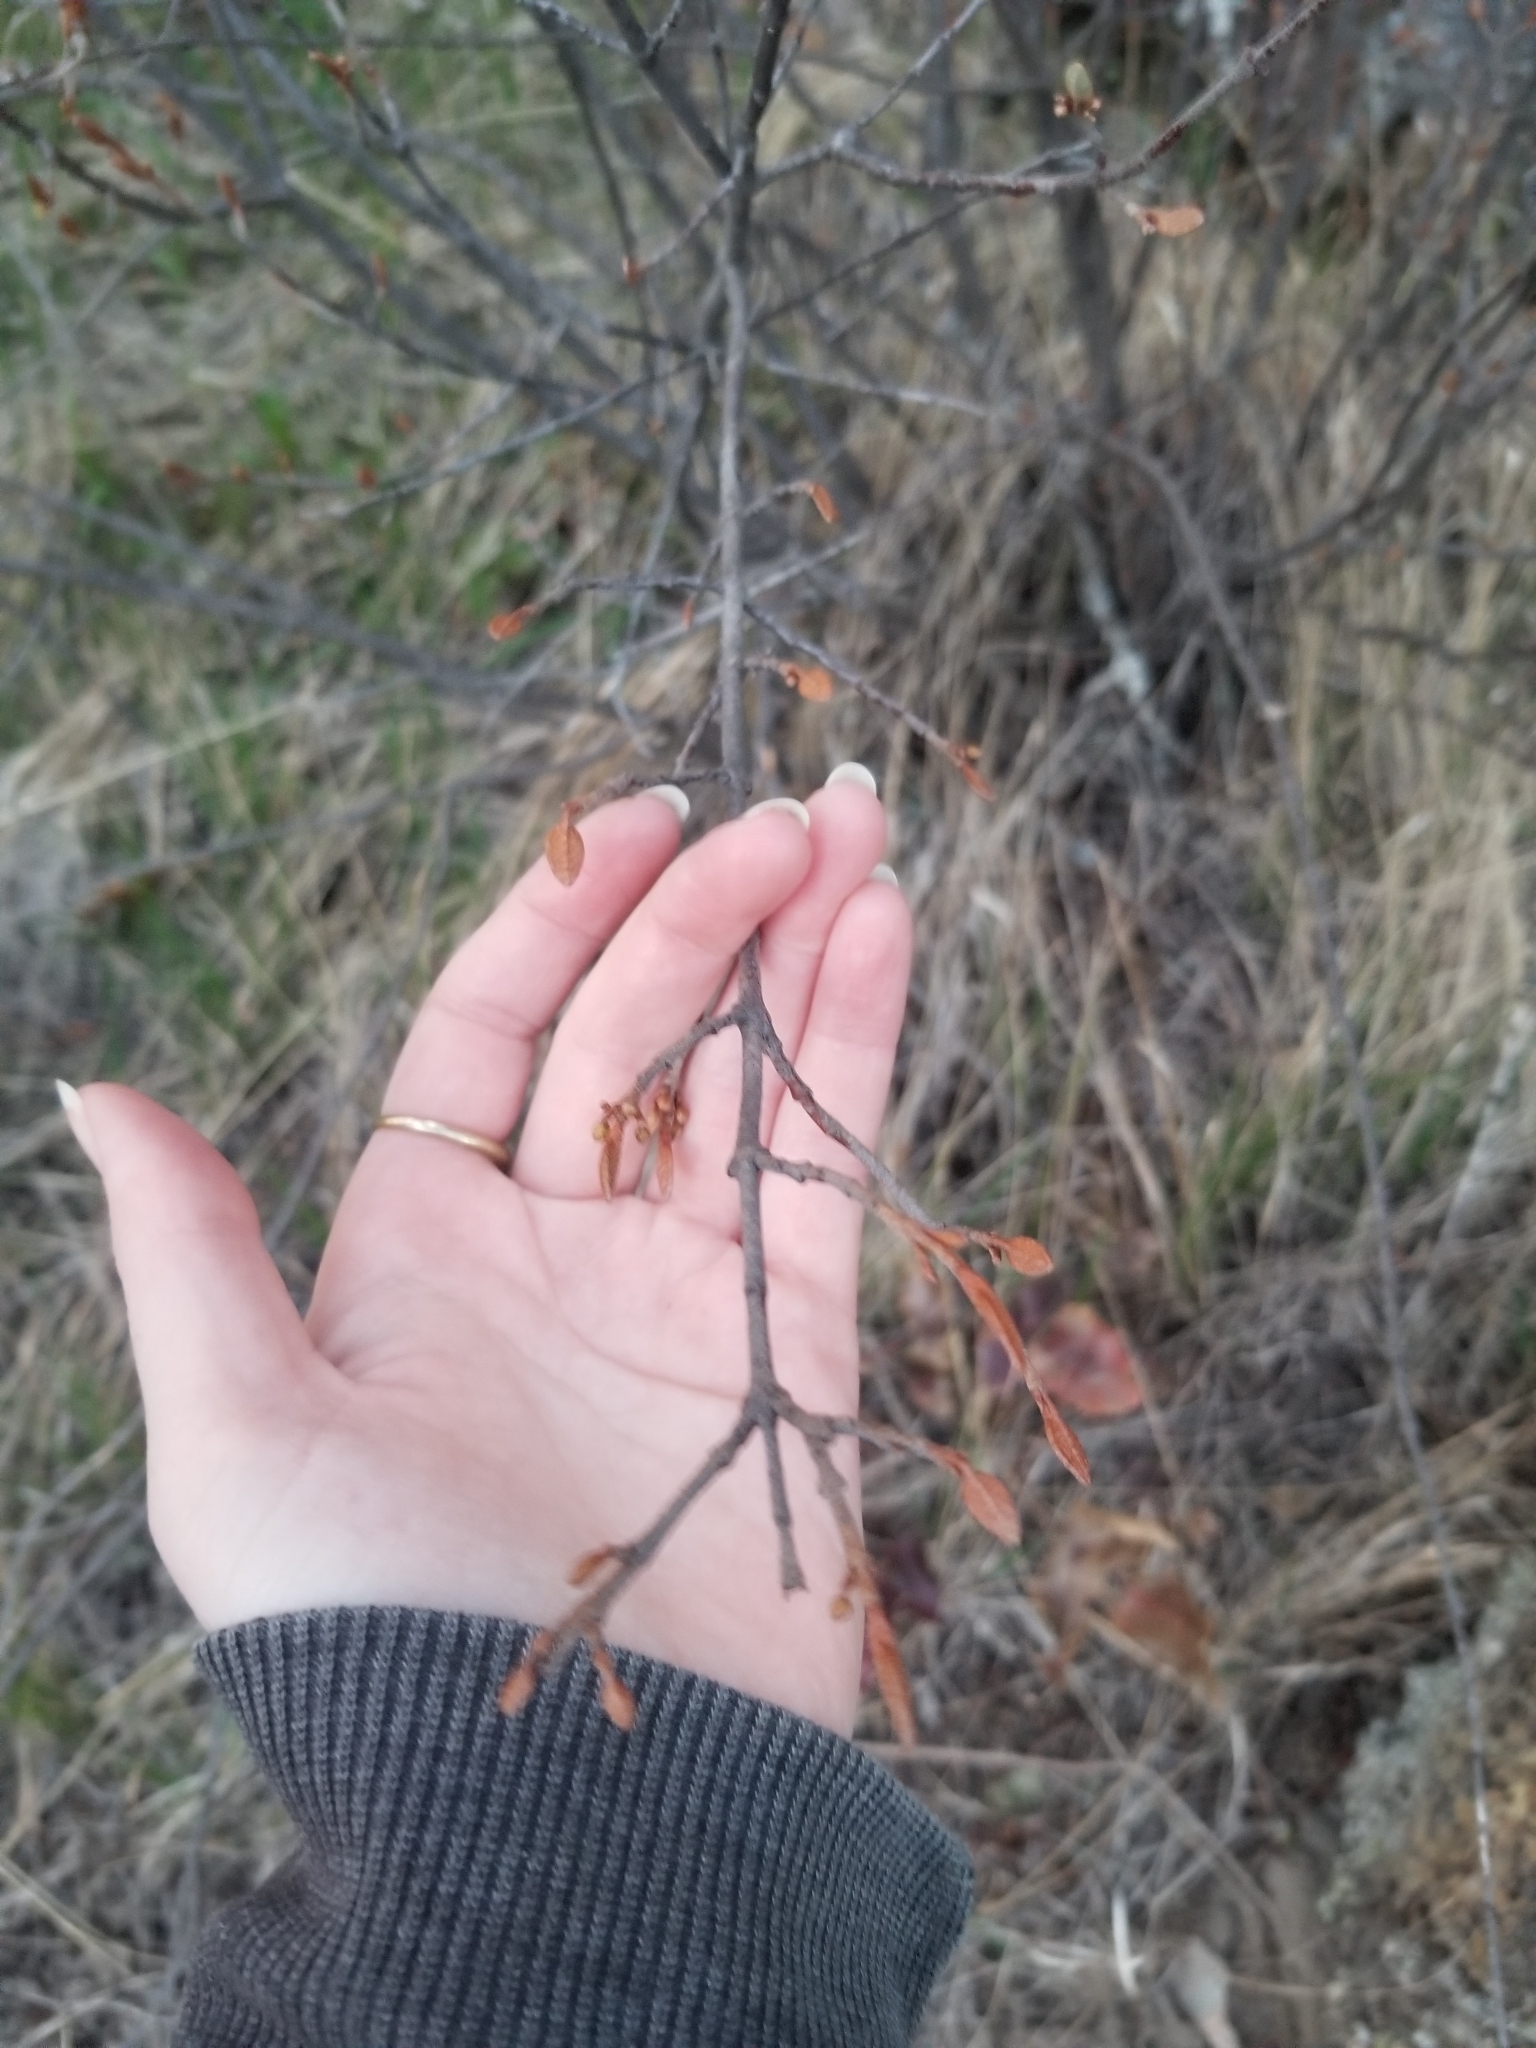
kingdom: Plantae
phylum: Tracheophyta
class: Magnoliopsida
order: Rosales
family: Elaeagnaceae
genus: Shepherdia
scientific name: Shepherdia canadensis
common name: Soapberry
